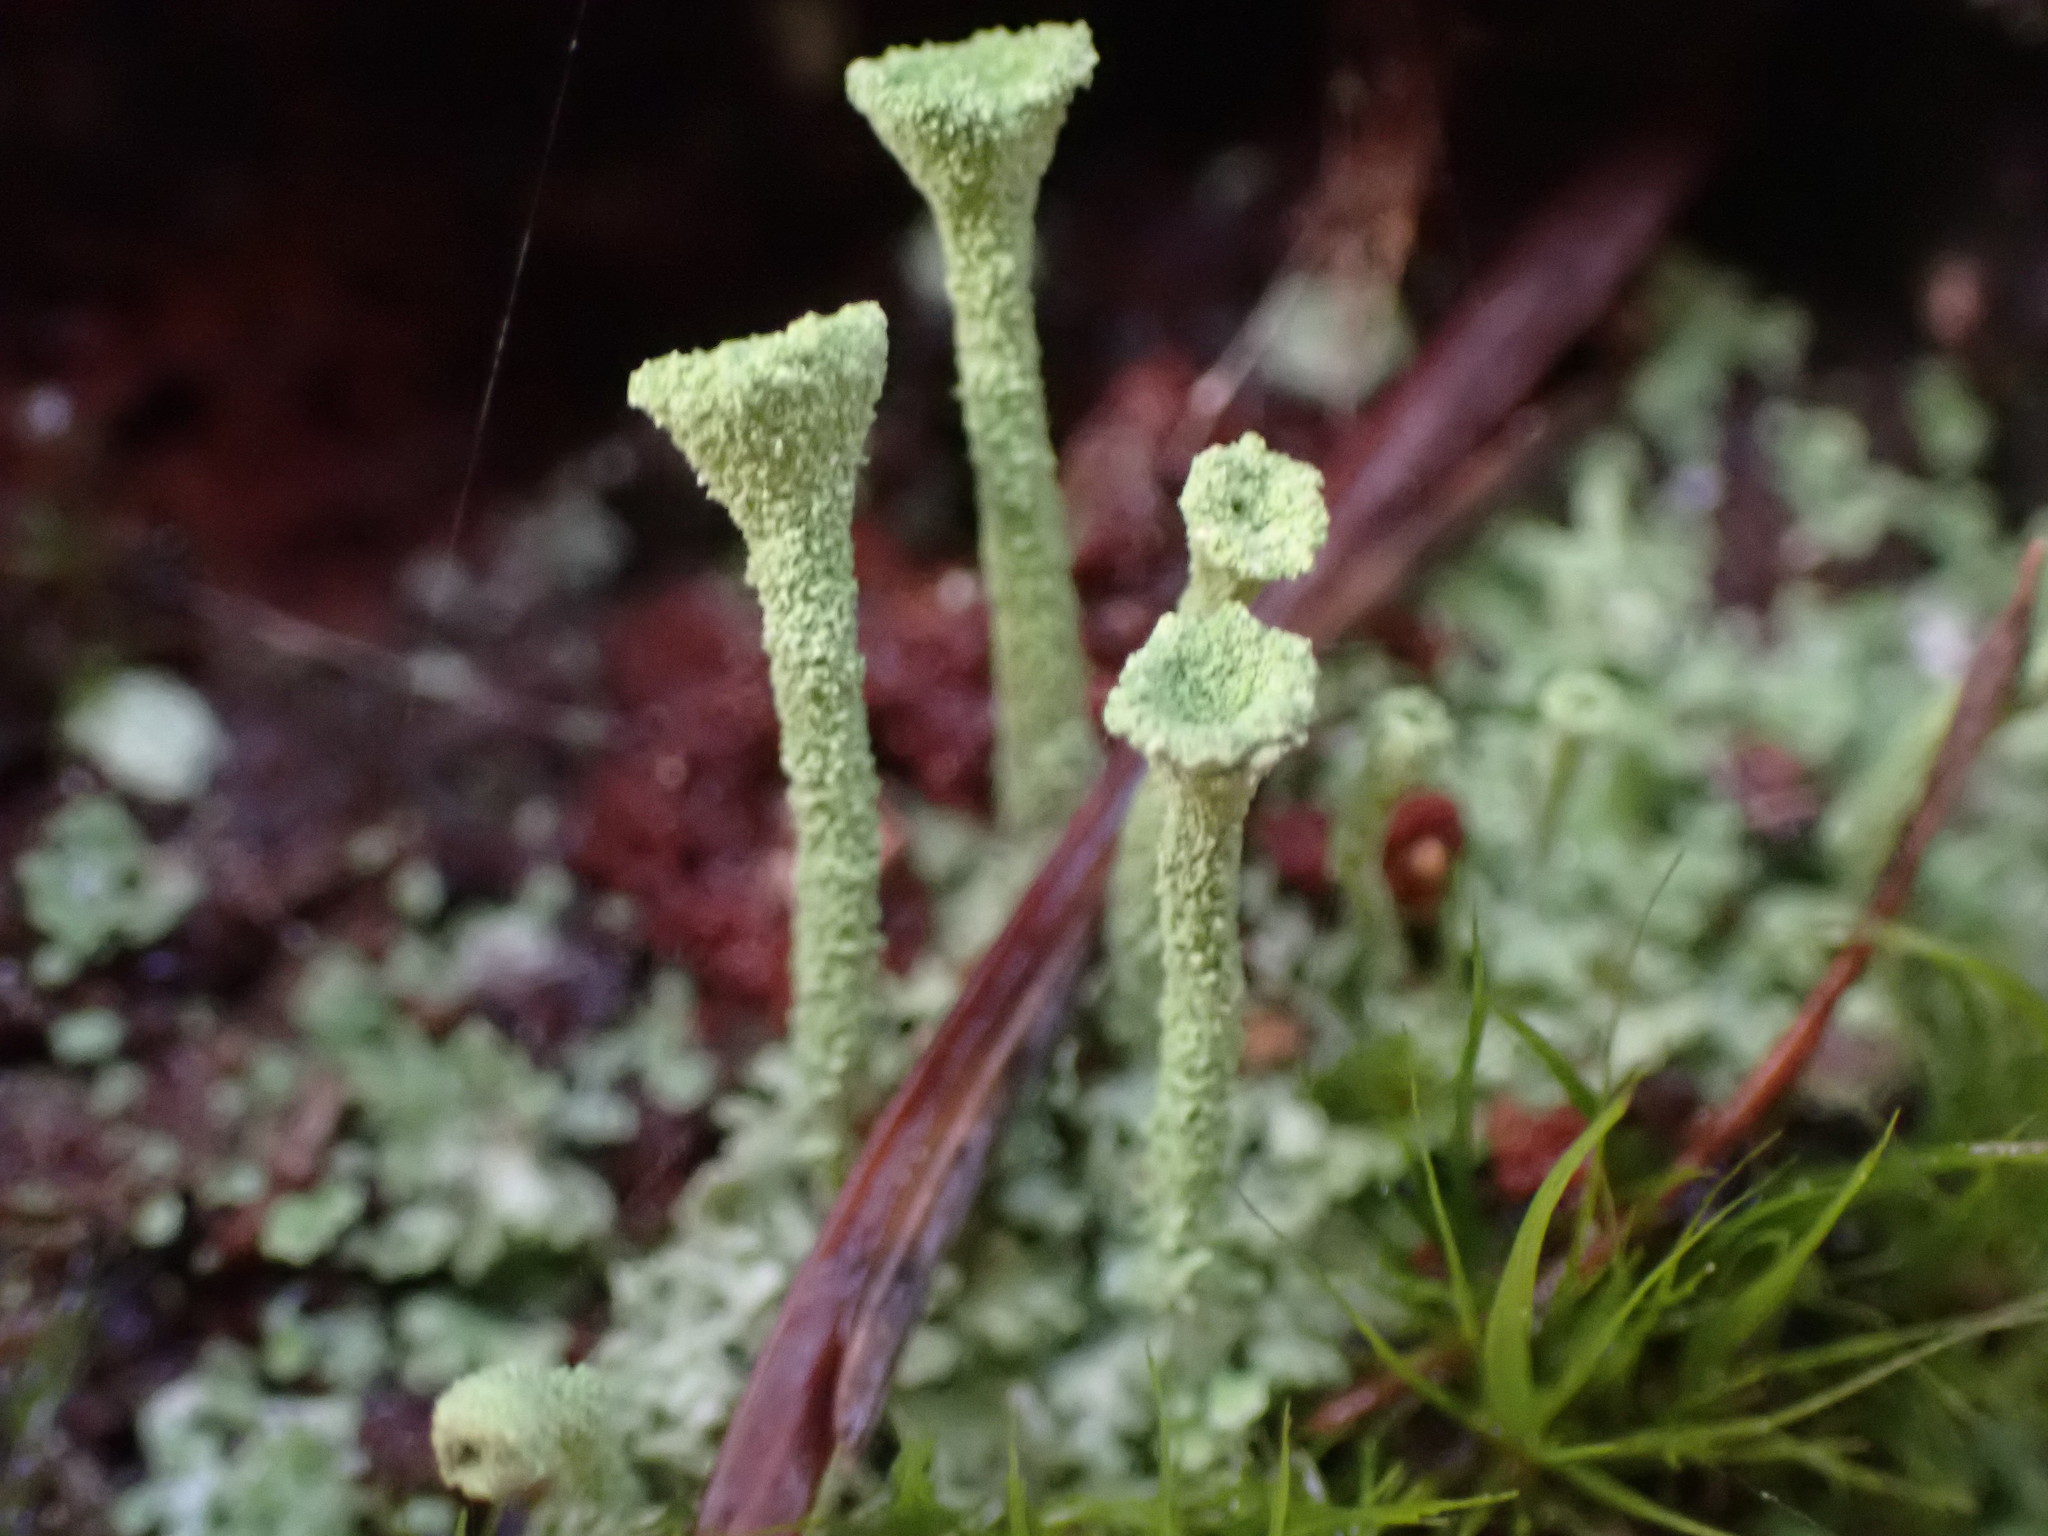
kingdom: Fungi
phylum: Ascomycota
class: Lecanoromycetes
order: Lecanorales
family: Cladoniaceae
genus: Cladonia
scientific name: Cladonia fimbriata
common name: Powdered trumpet lichen
